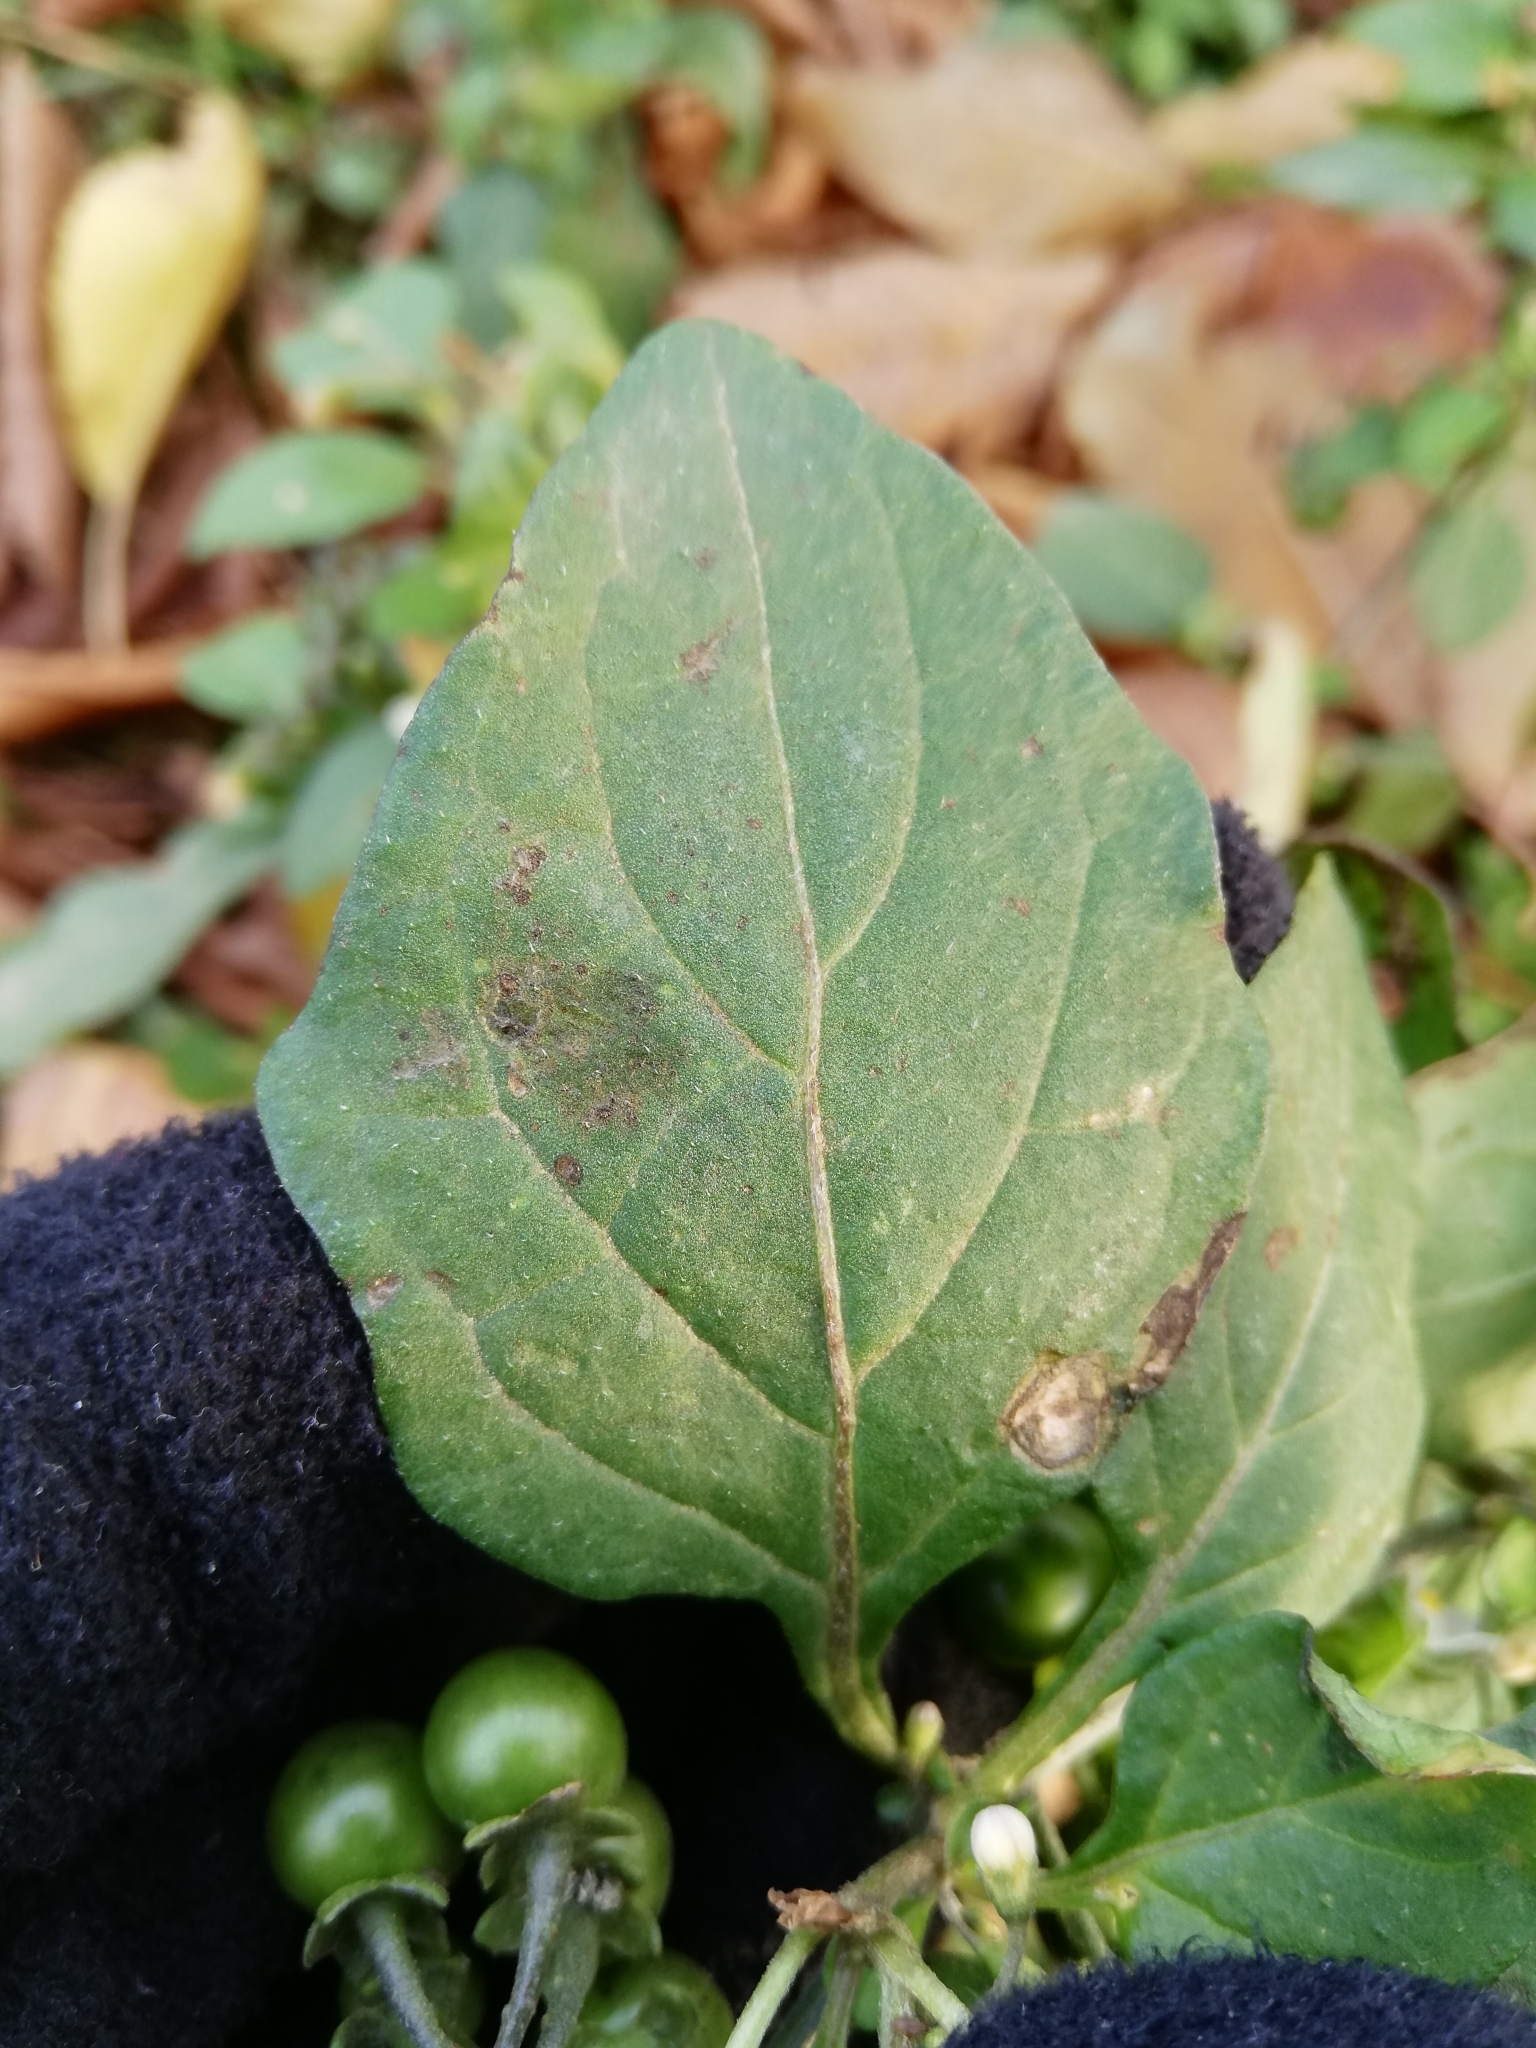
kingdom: Plantae
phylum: Tracheophyta
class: Magnoliopsida
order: Solanales
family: Solanaceae
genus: Solanum
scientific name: Solanum nigrum
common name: Black nightshade
